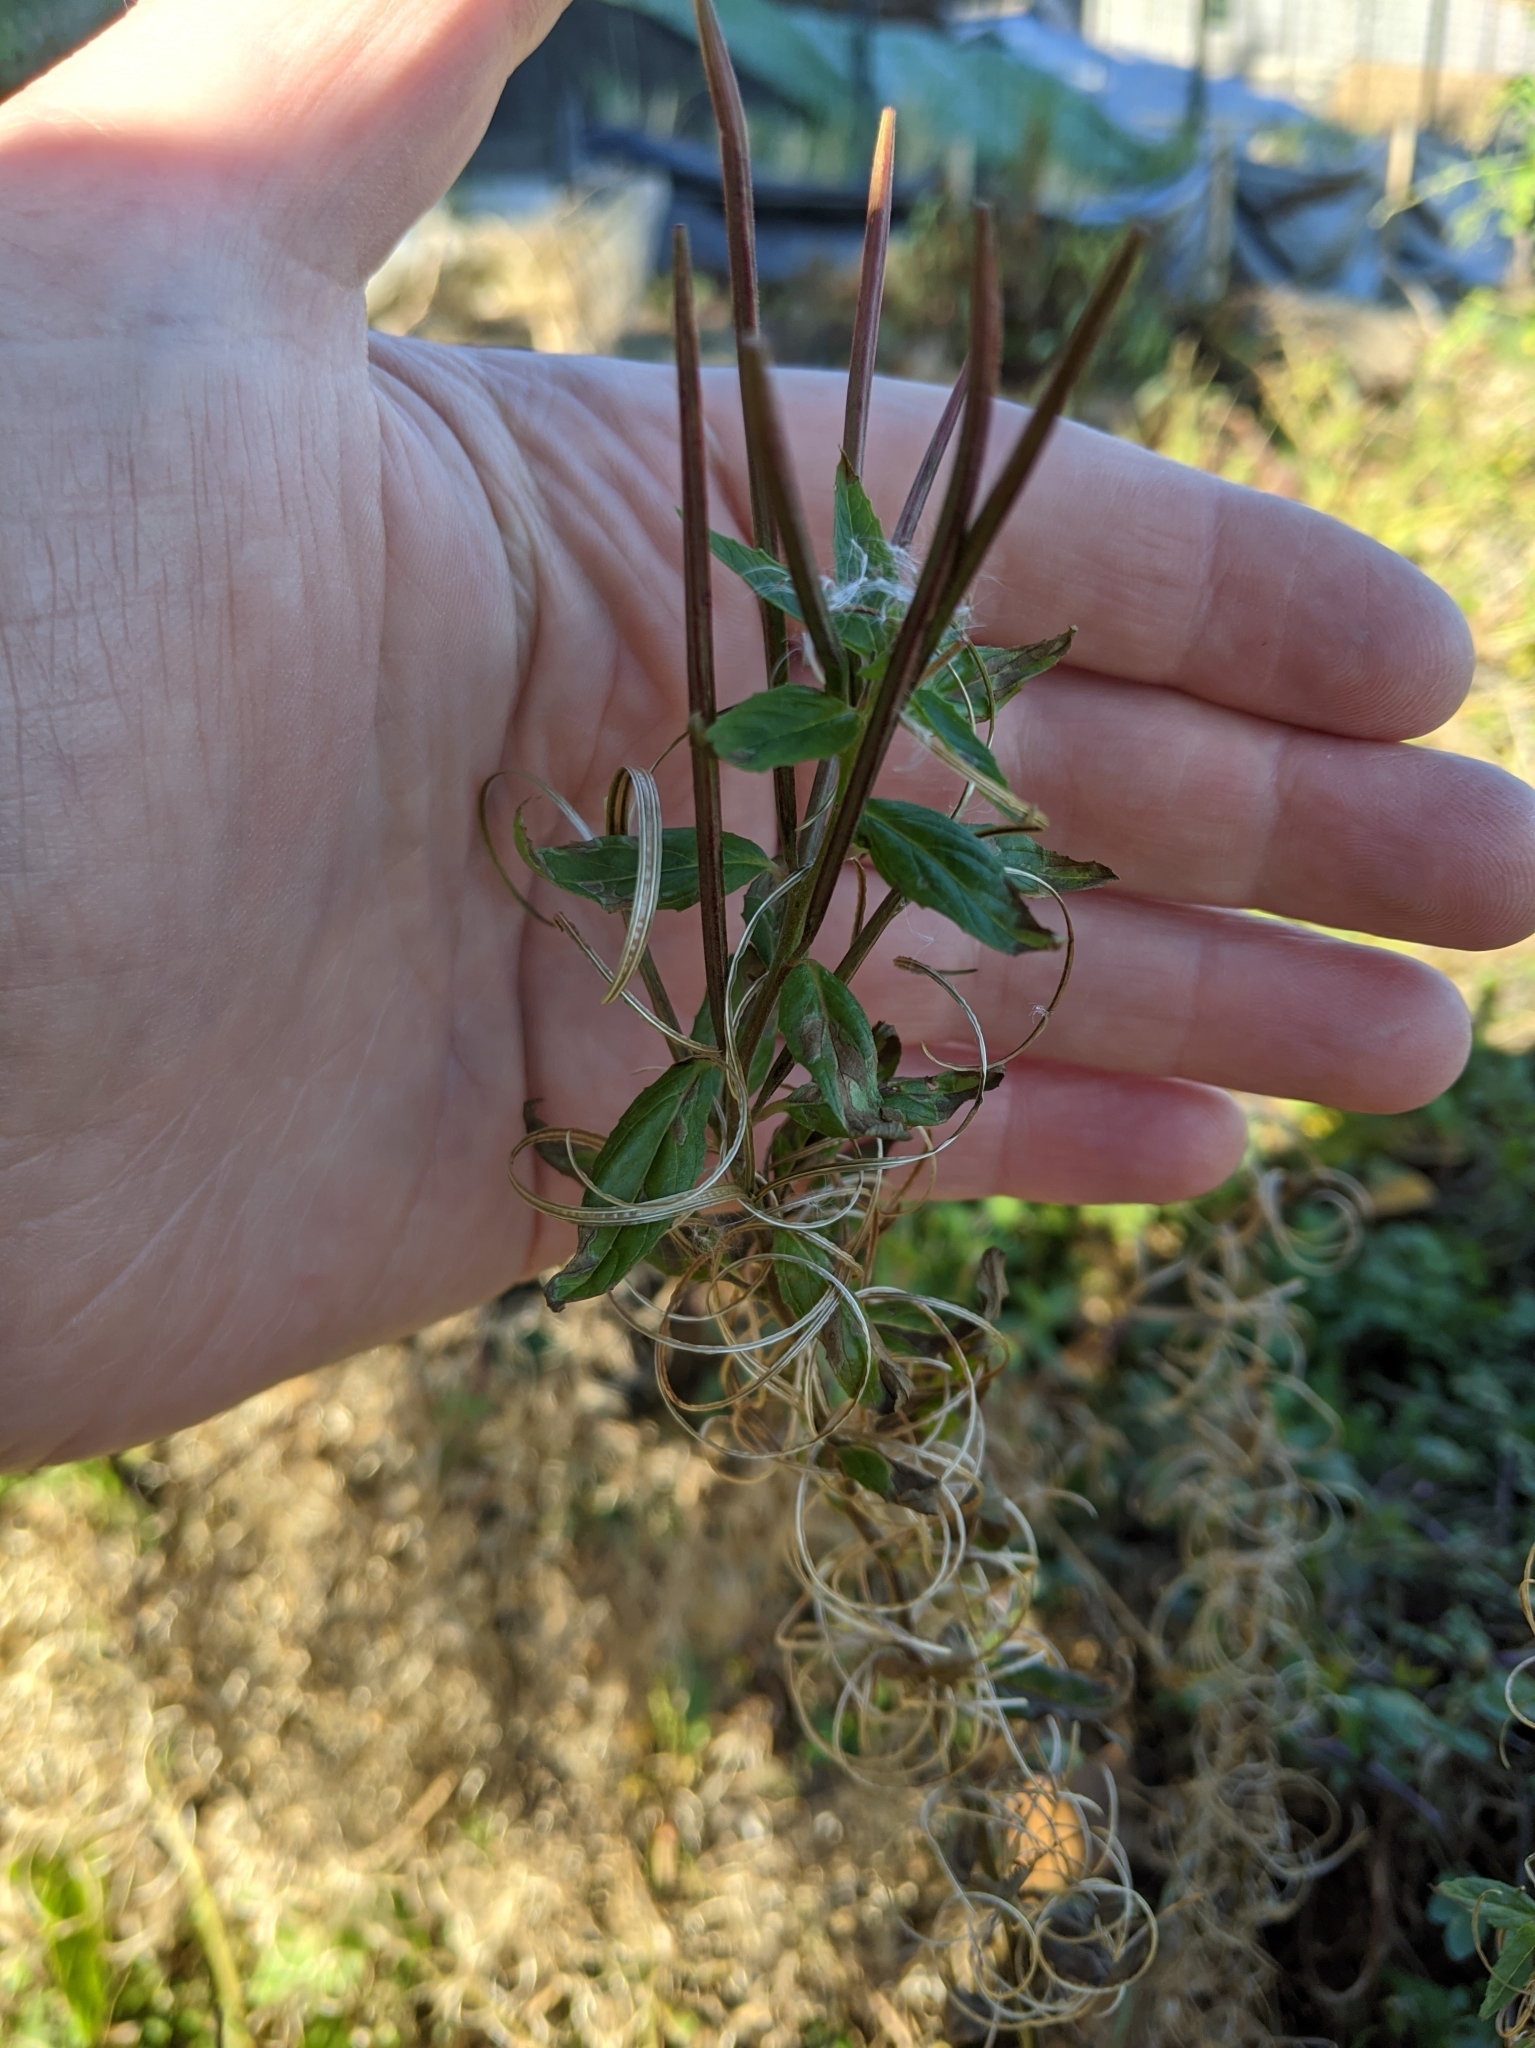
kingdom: Plantae
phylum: Tracheophyta
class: Magnoliopsida
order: Myrtales
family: Onagraceae
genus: Epilobium
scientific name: Epilobium ciliatum
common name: American willowherb
